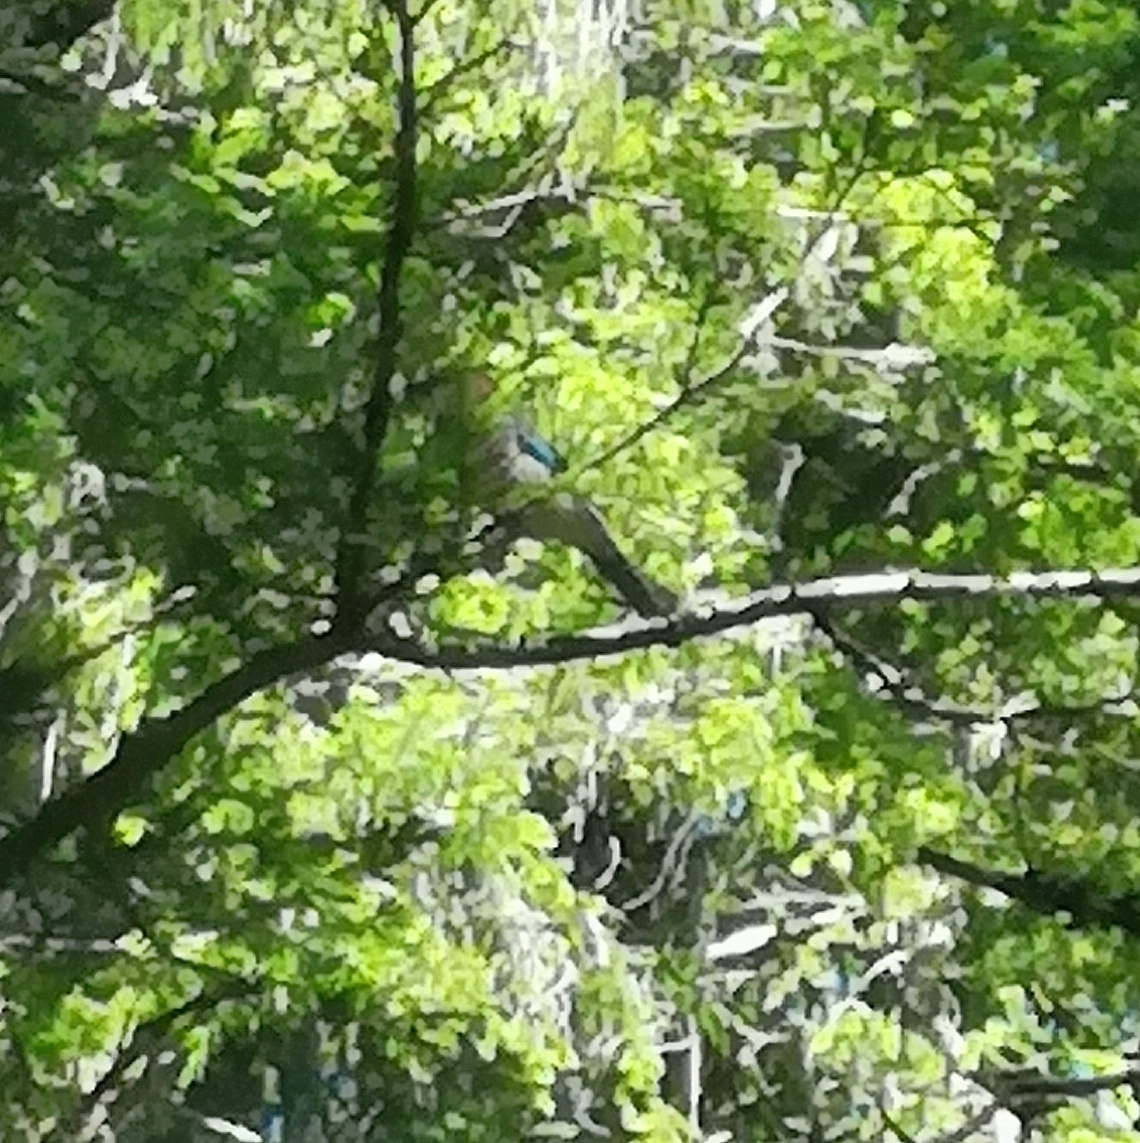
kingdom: Animalia
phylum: Chordata
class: Aves
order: Passeriformes
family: Corvidae
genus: Garrulus
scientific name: Garrulus glandarius
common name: Eurasian jay
